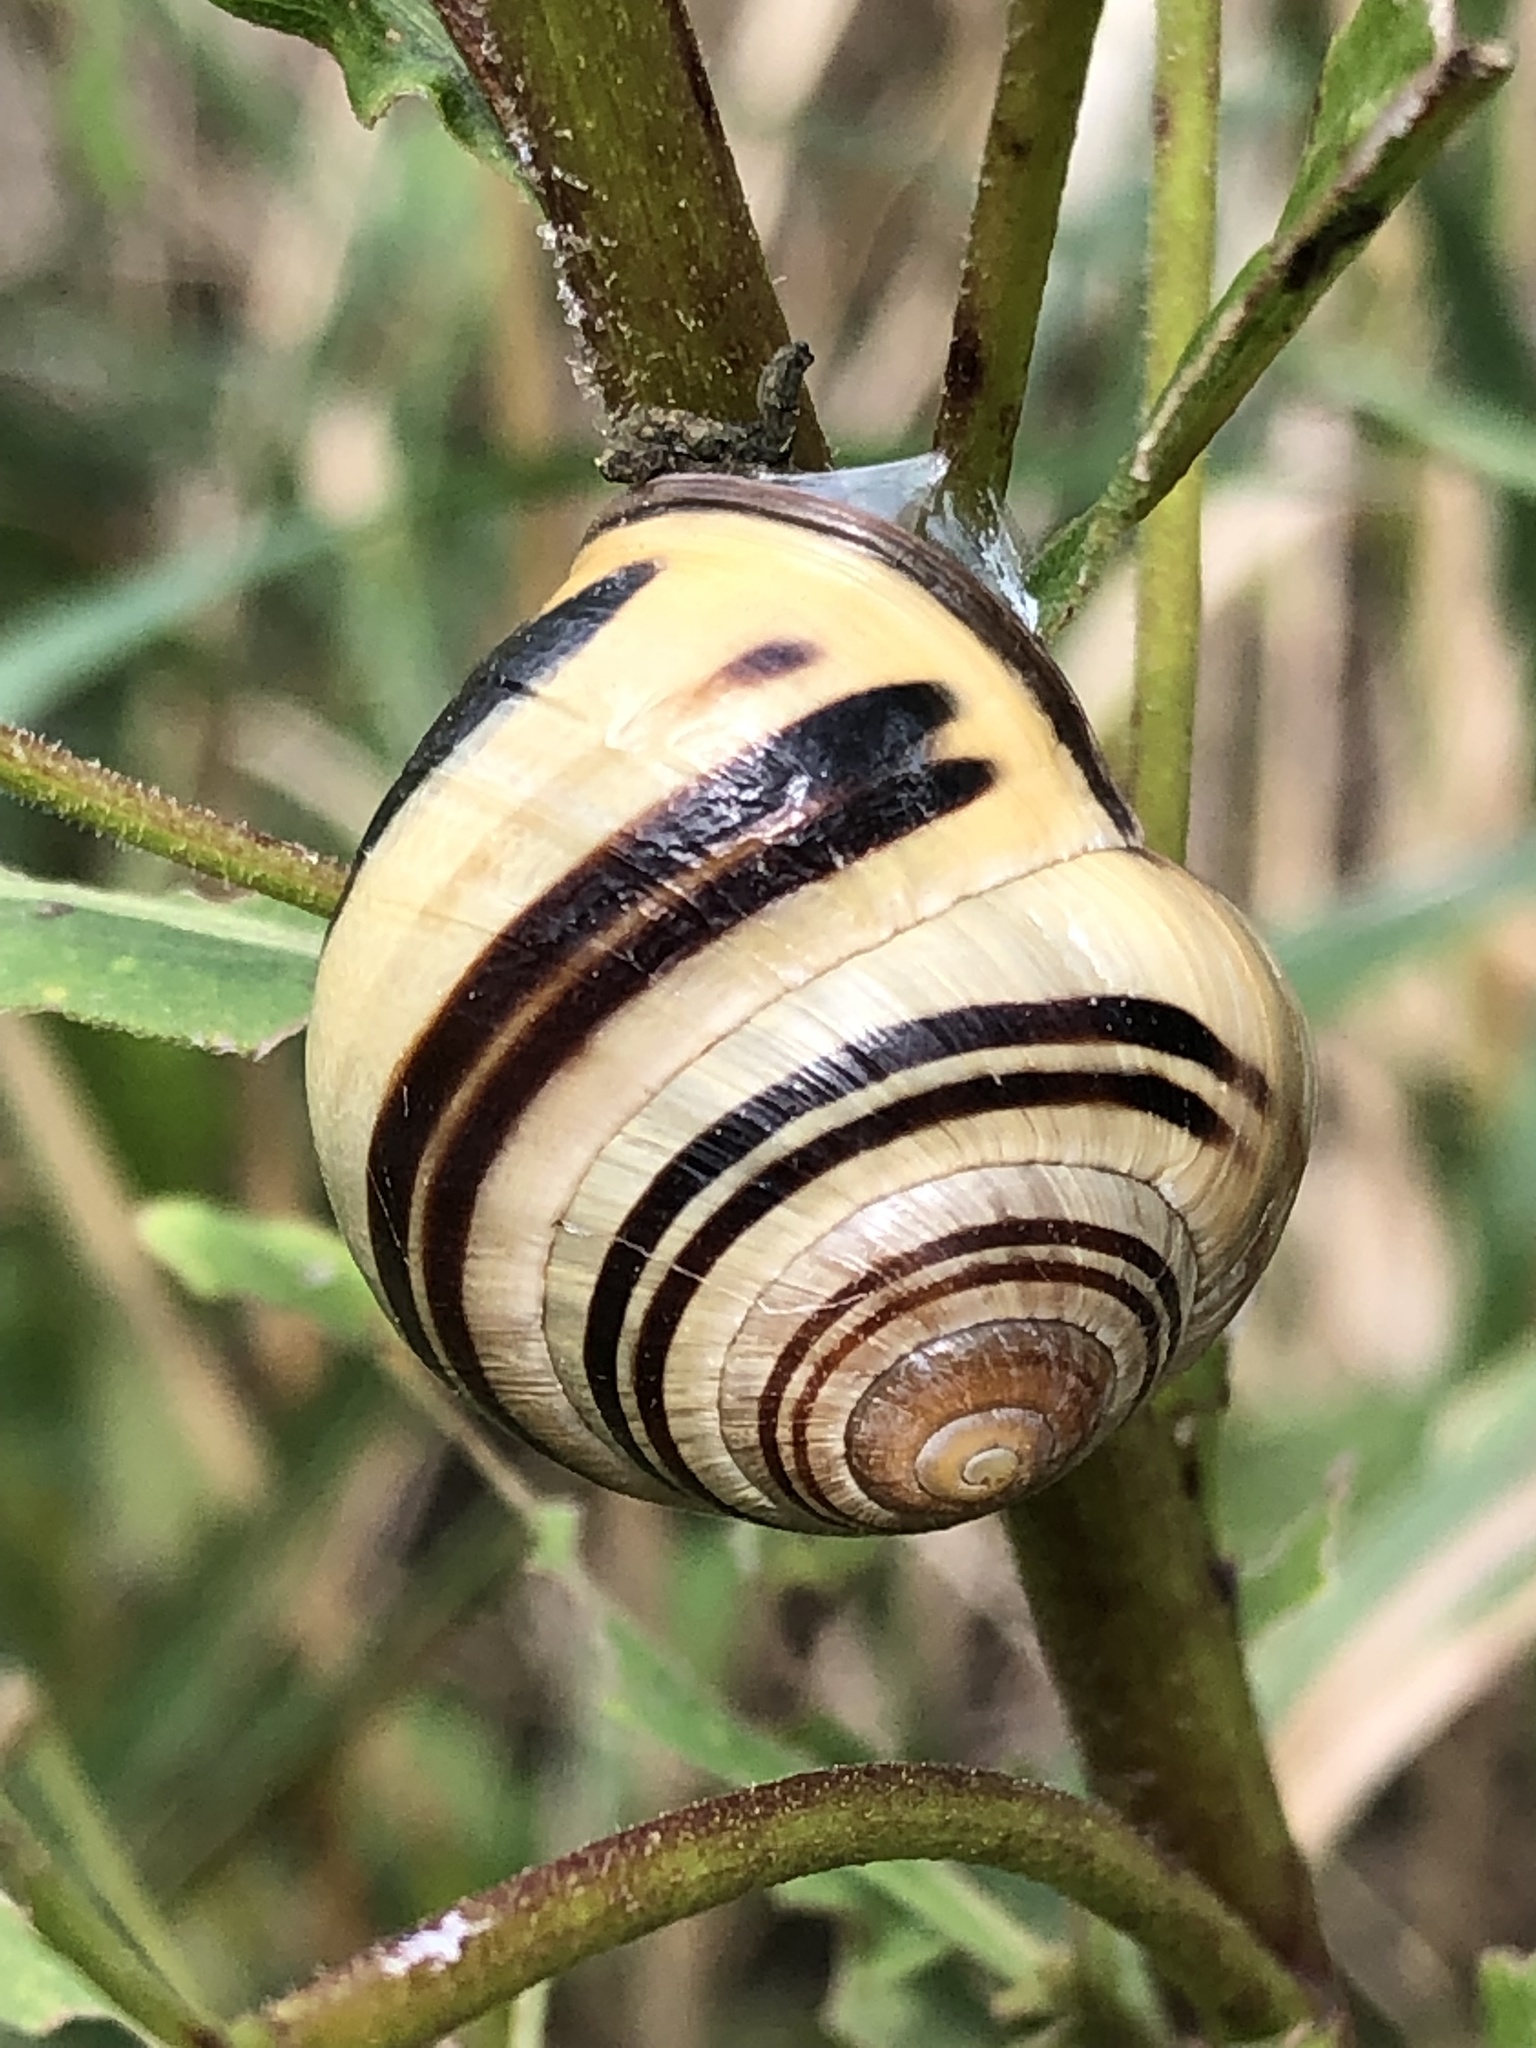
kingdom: Animalia
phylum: Mollusca
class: Gastropoda
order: Stylommatophora
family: Helicidae
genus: Cepaea
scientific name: Cepaea nemoralis
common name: Grovesnail
